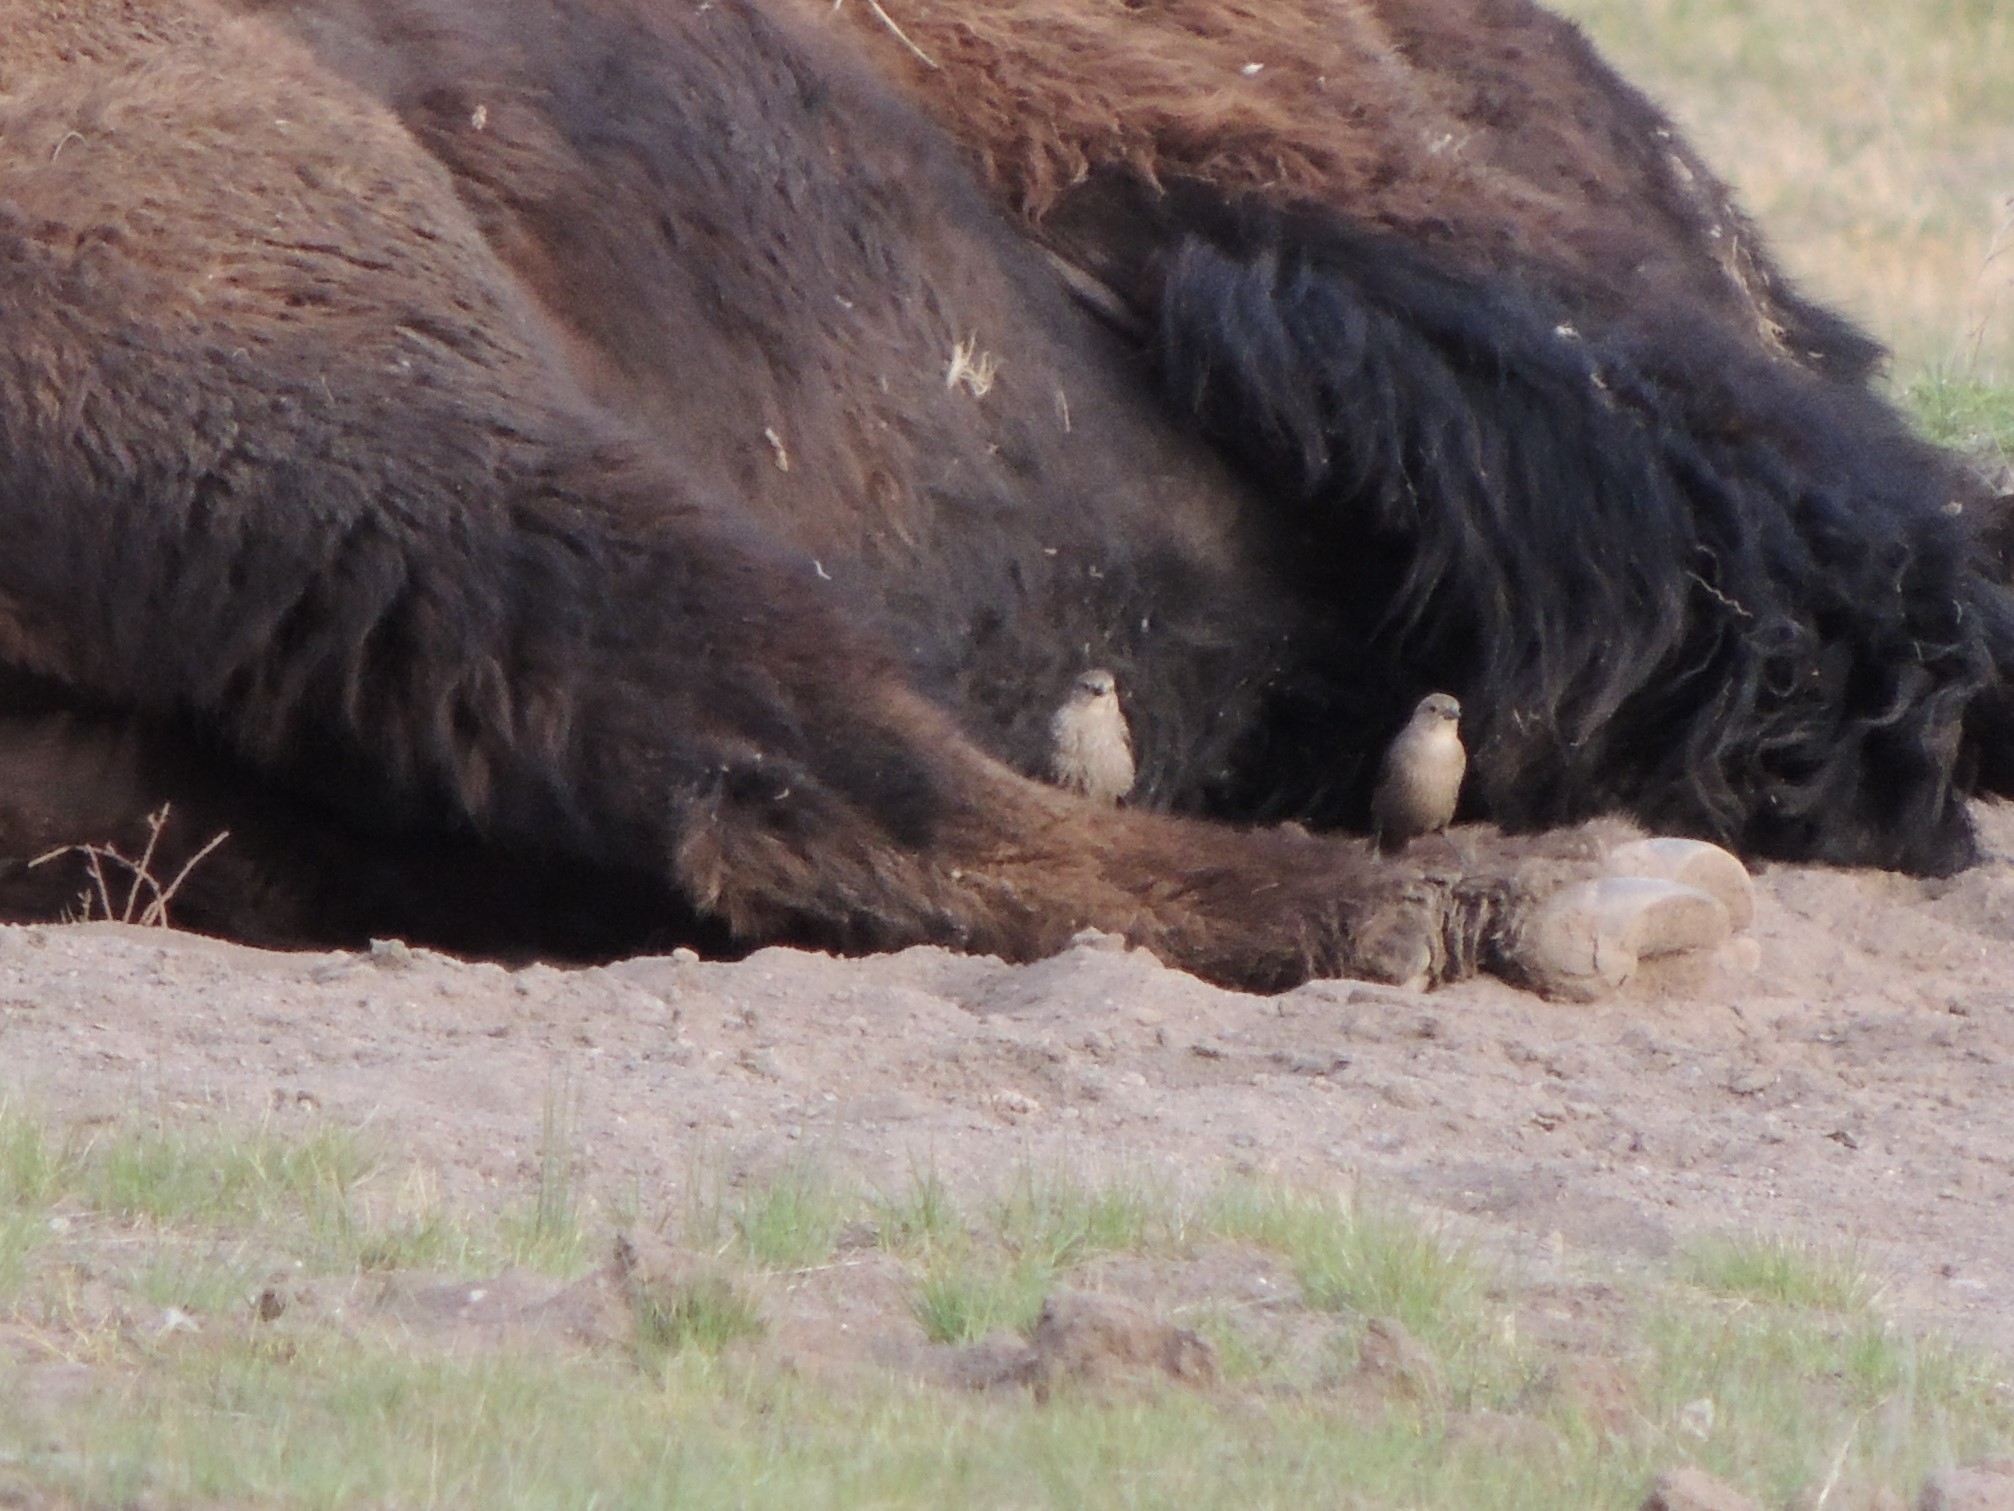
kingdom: Animalia
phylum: Chordata
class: Aves
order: Passeriformes
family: Icteridae
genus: Molothrus
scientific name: Molothrus ater
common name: Brown-headed cowbird
